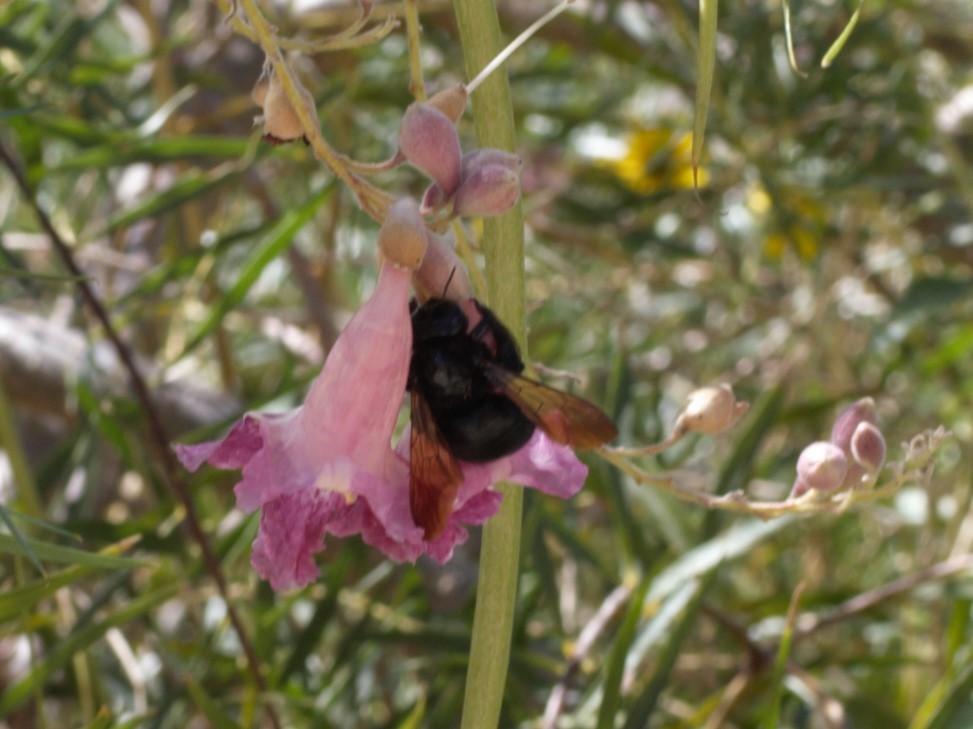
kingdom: Animalia
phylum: Arthropoda
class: Insecta
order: Hymenoptera
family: Apidae
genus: Xylocopa
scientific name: Xylocopa sonorina
